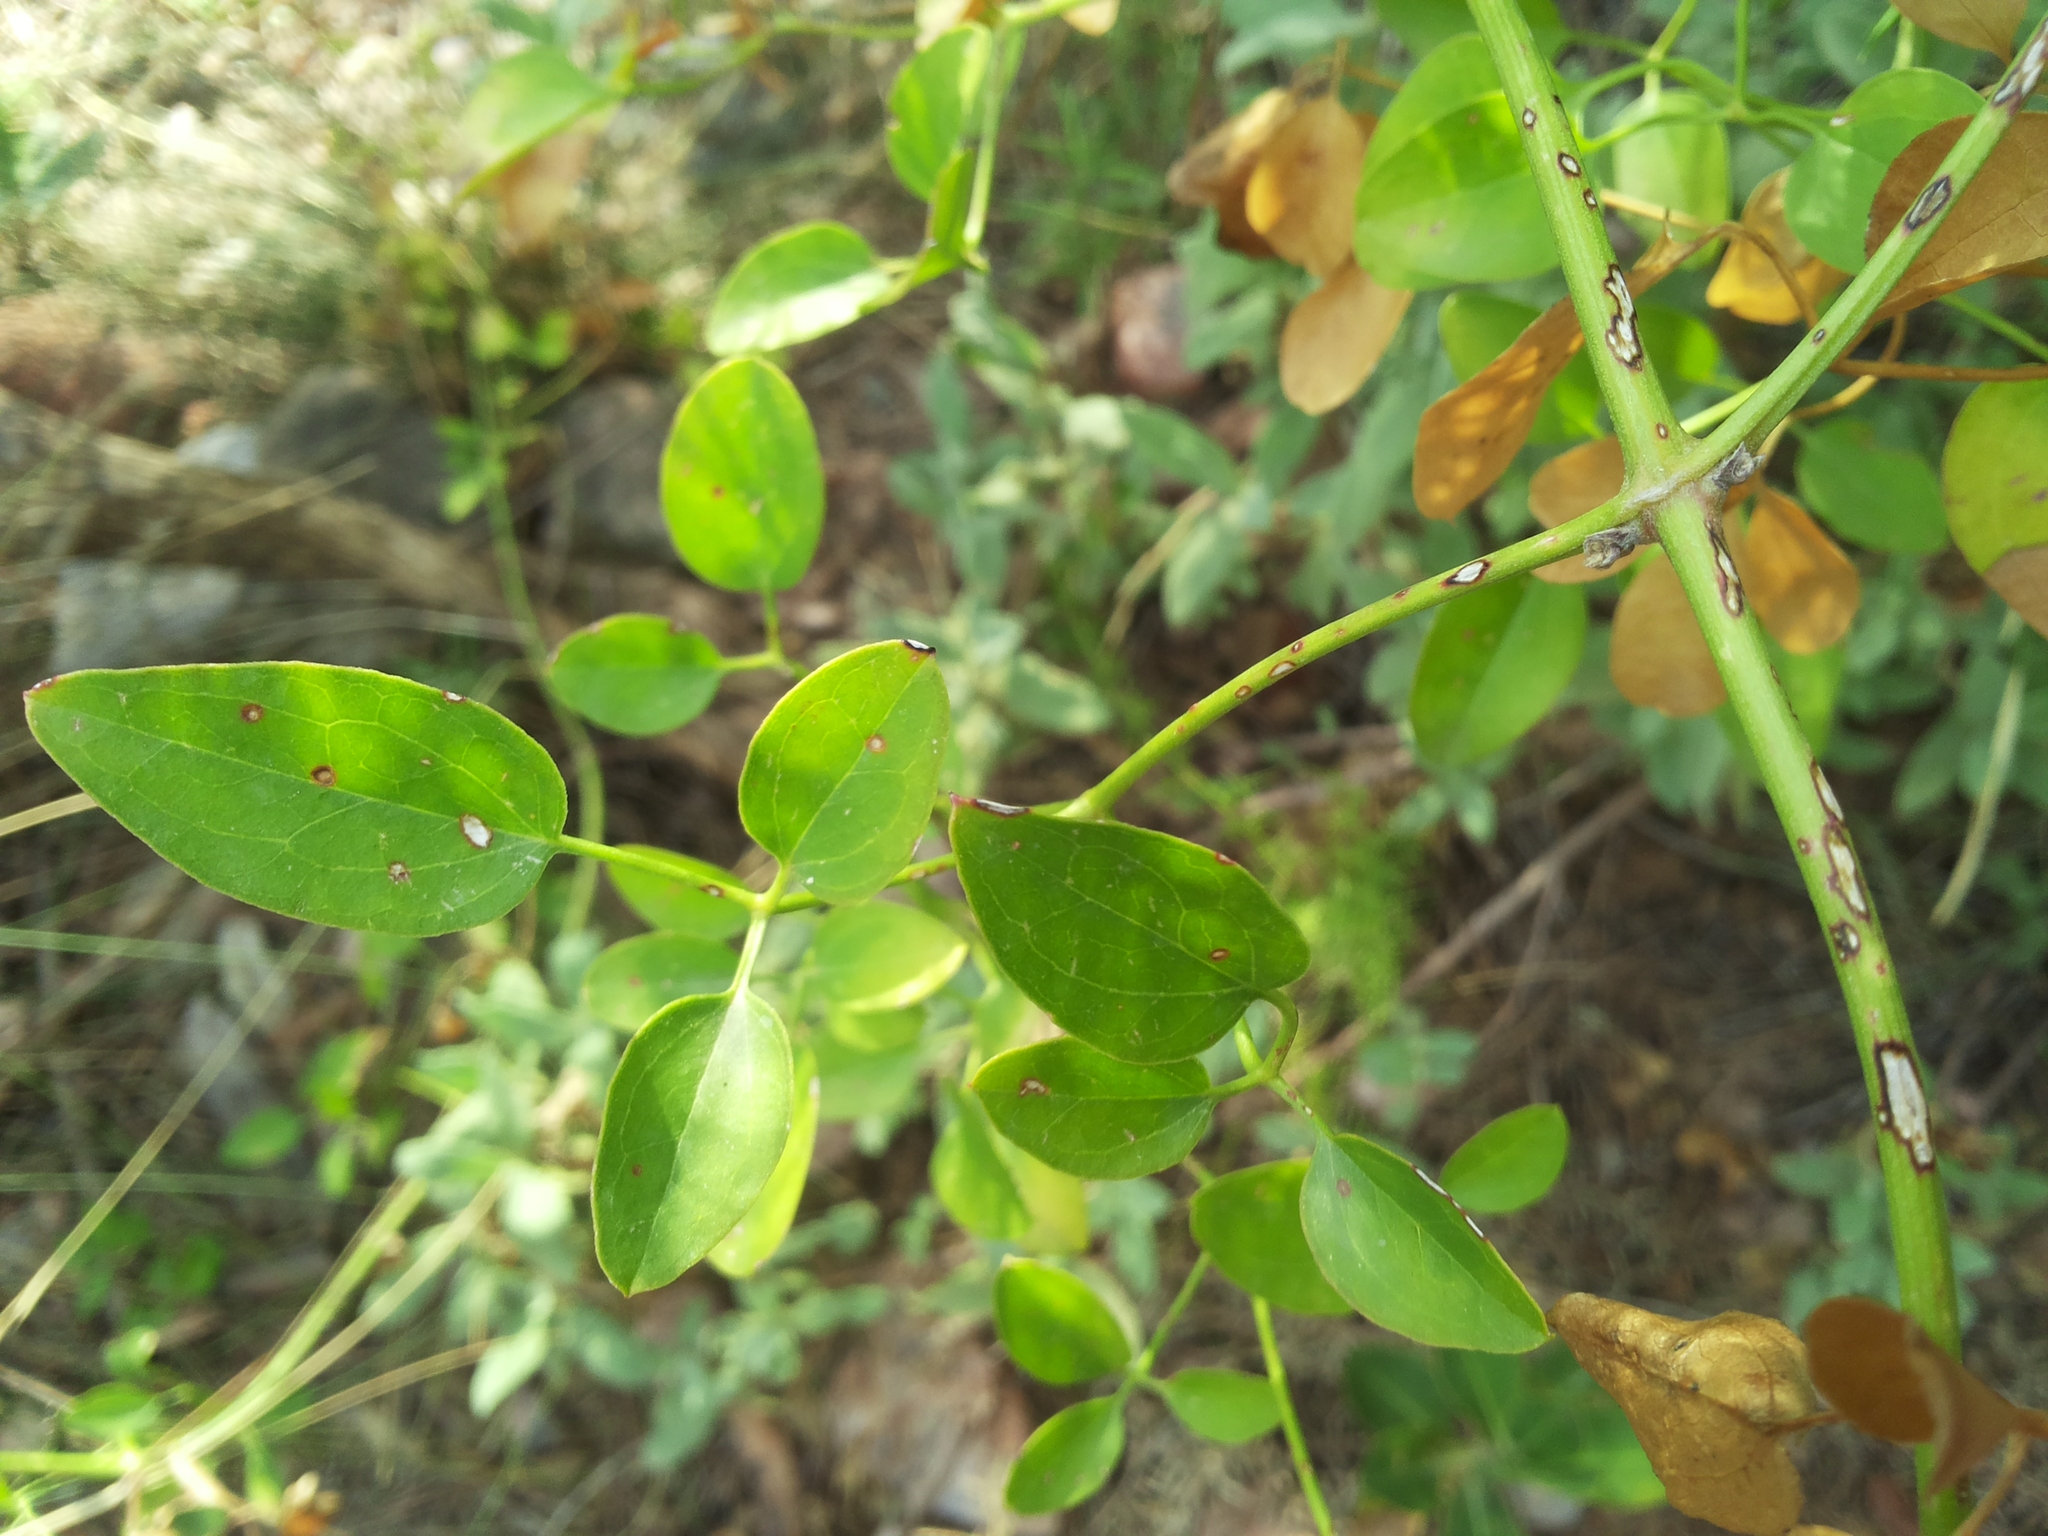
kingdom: Plantae
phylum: Tracheophyta
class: Magnoliopsida
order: Ranunculales
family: Ranunculaceae
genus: Clematis
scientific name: Clematis flammula
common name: Virgin's-bower
